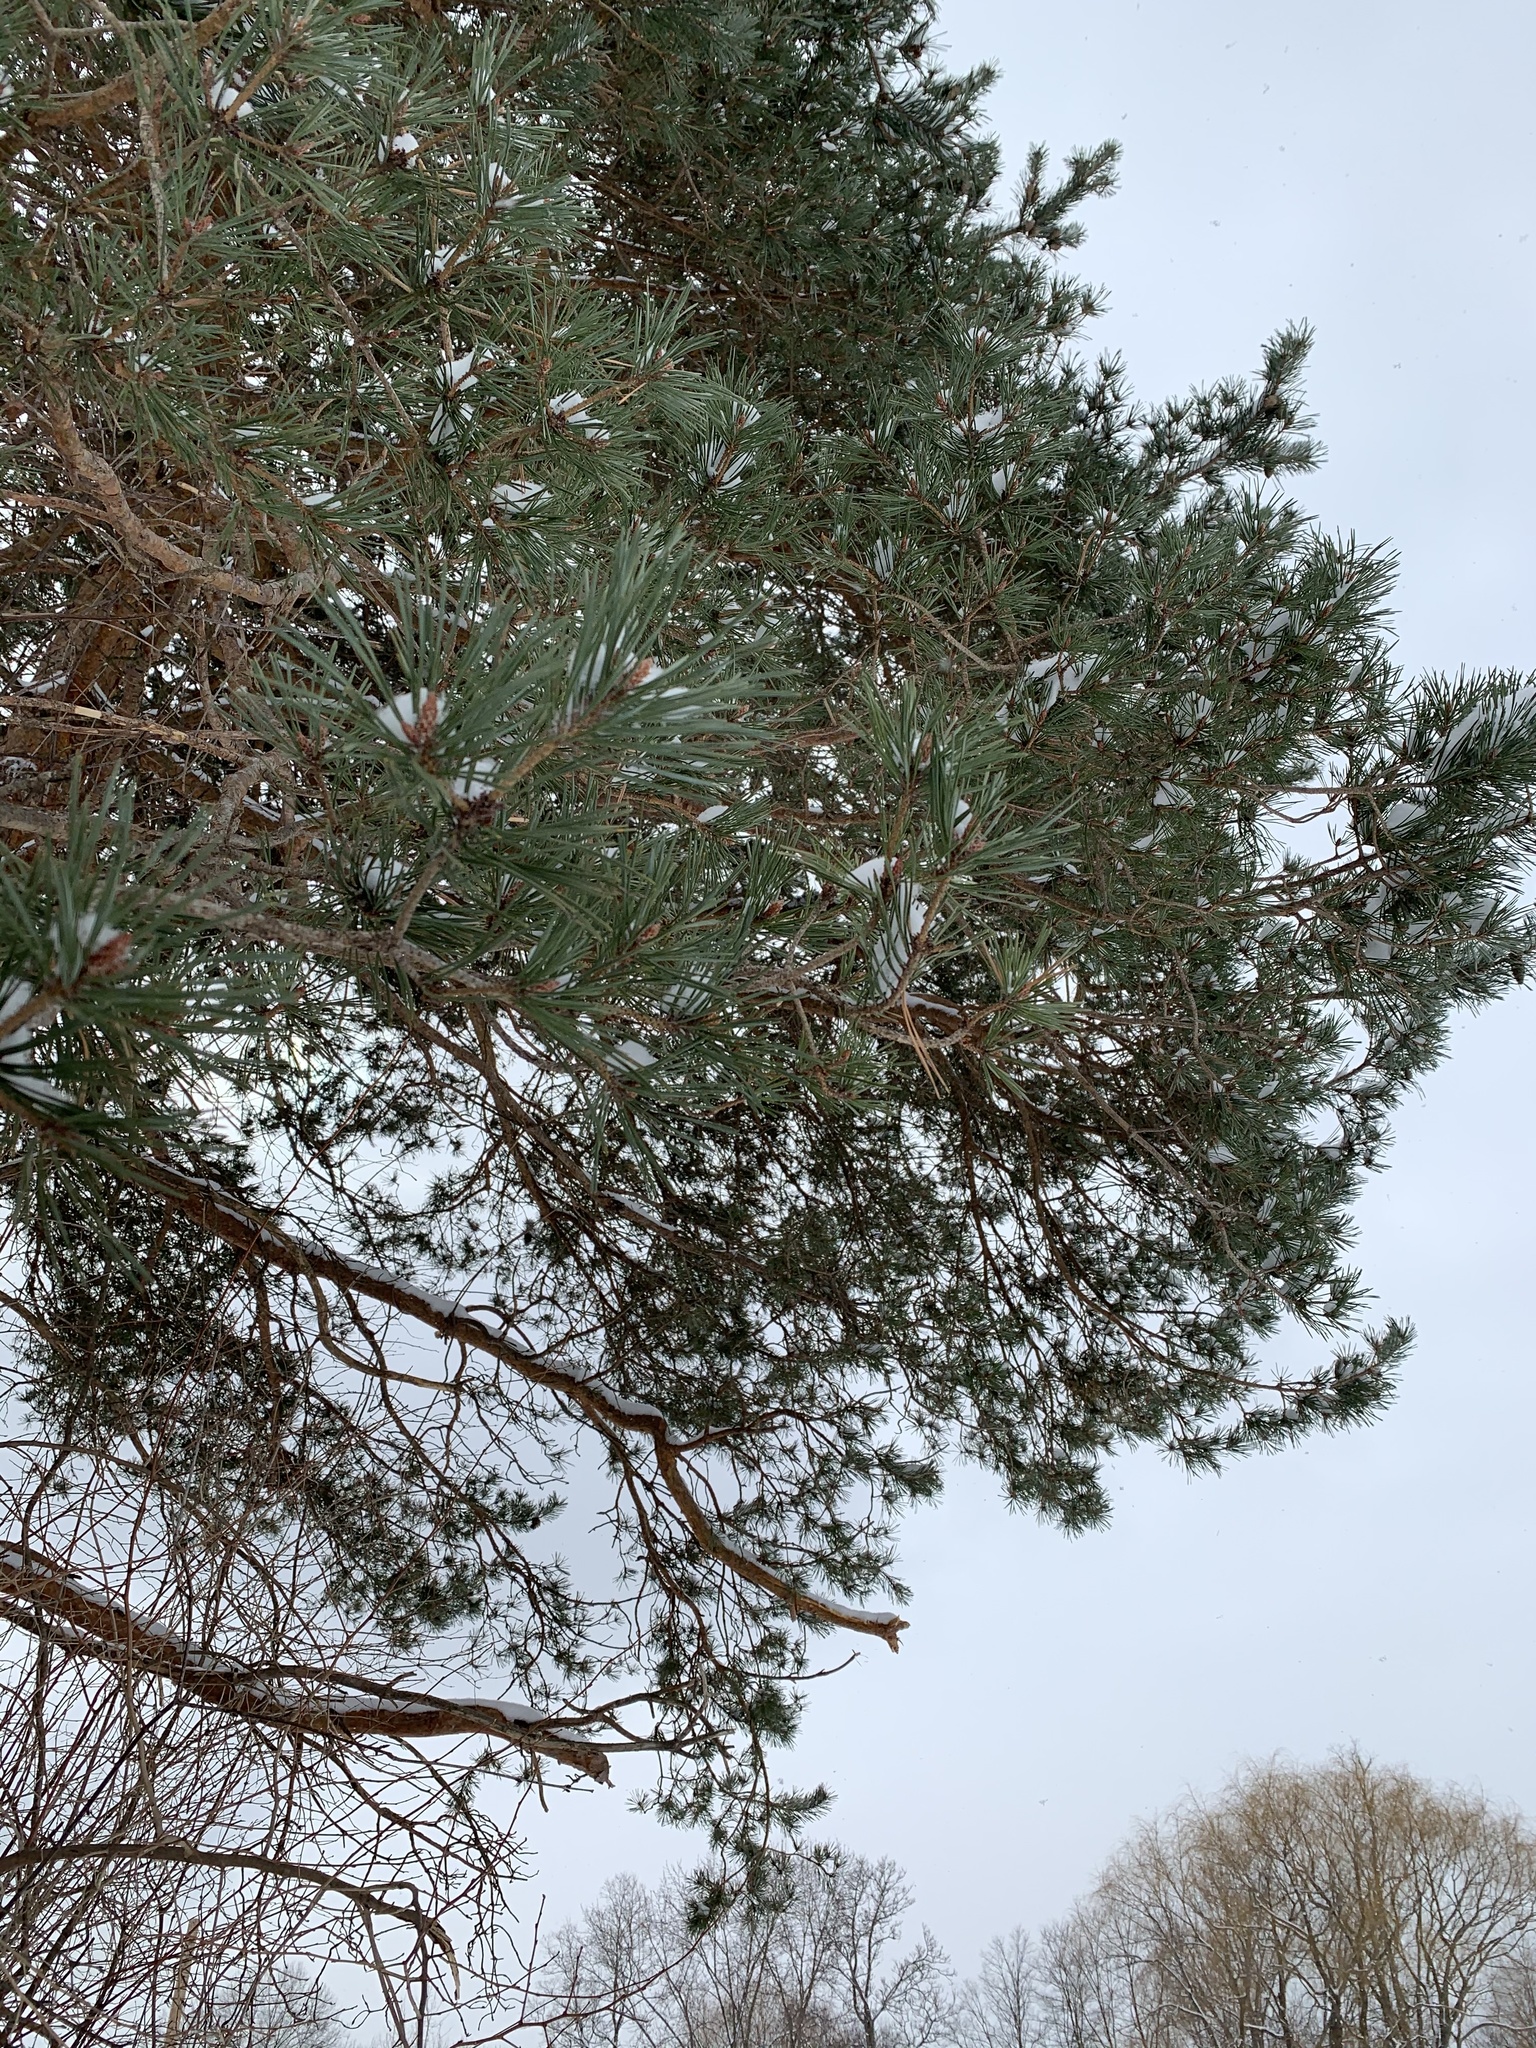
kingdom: Plantae
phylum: Tracheophyta
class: Pinopsida
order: Pinales
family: Pinaceae
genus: Pinus
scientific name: Pinus sylvestris
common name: Scots pine
